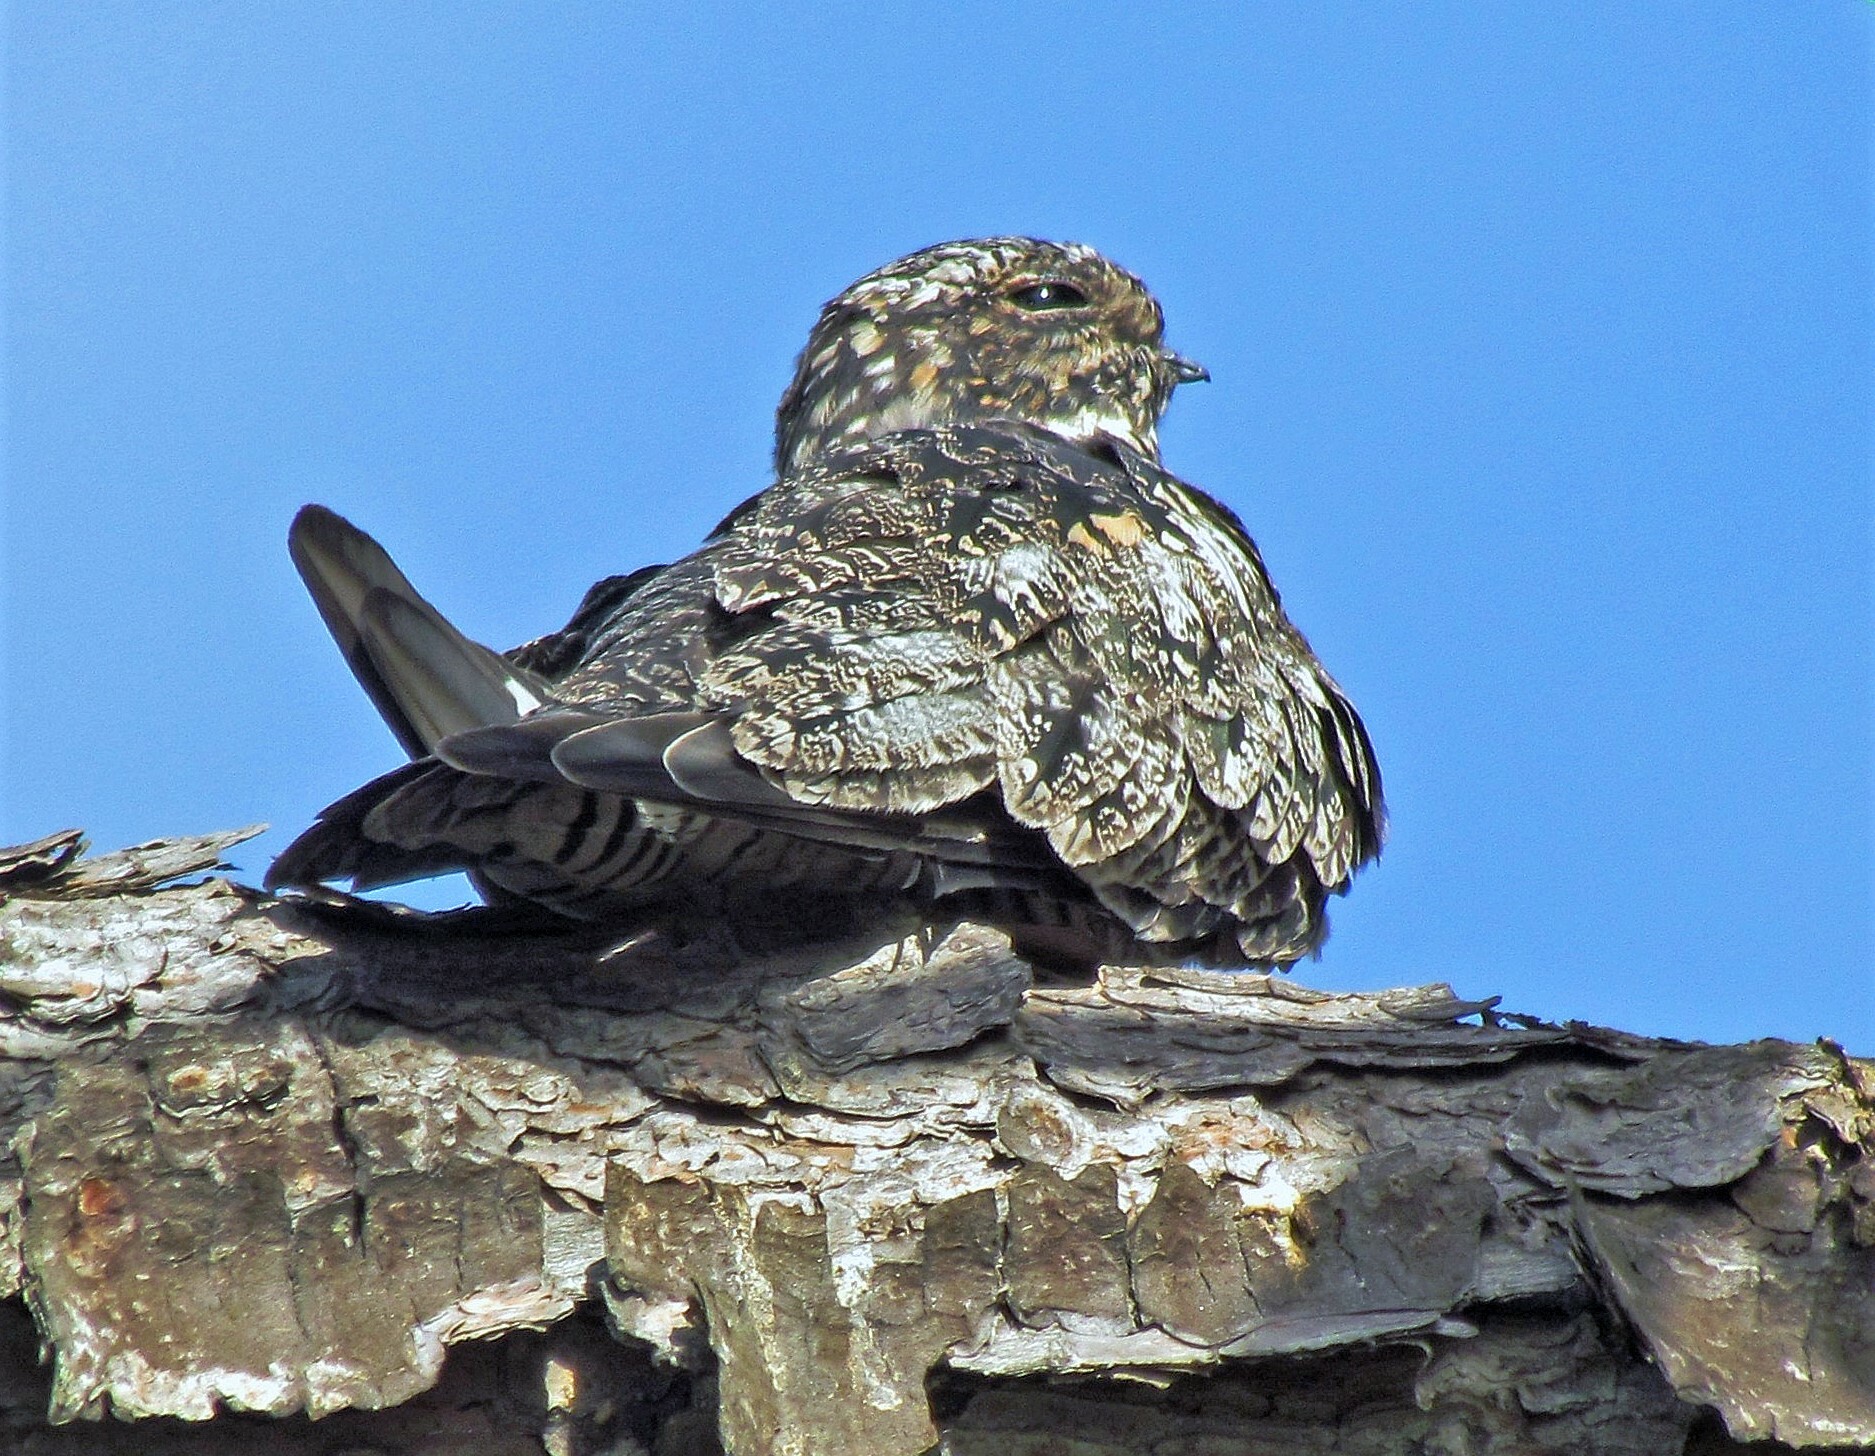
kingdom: Animalia
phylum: Chordata
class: Aves
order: Caprimulgiformes
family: Caprimulgidae
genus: Chordeiles
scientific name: Chordeiles minor
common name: Common nighthawk
